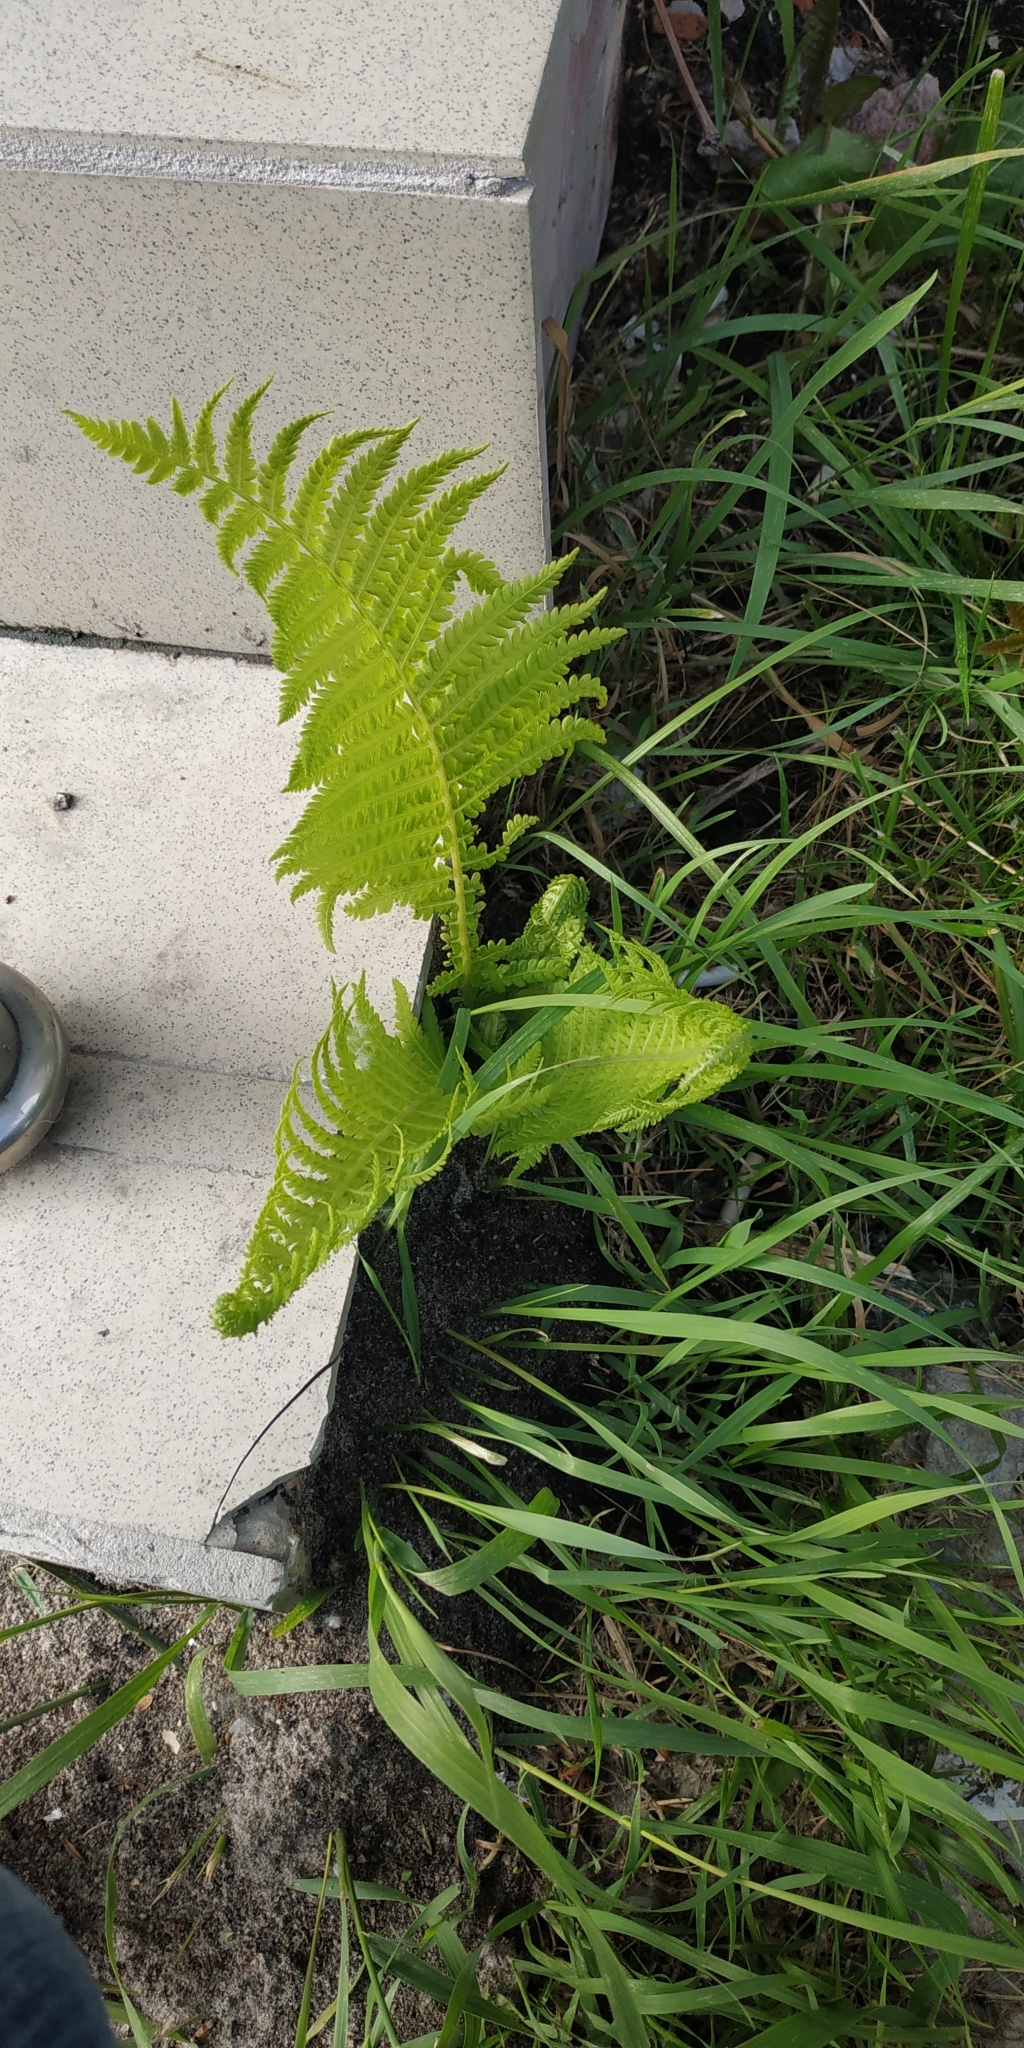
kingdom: Plantae
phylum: Tracheophyta
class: Polypodiopsida
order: Polypodiales
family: Onocleaceae
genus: Matteuccia
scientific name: Matteuccia struthiopteris
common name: Ostrich fern
